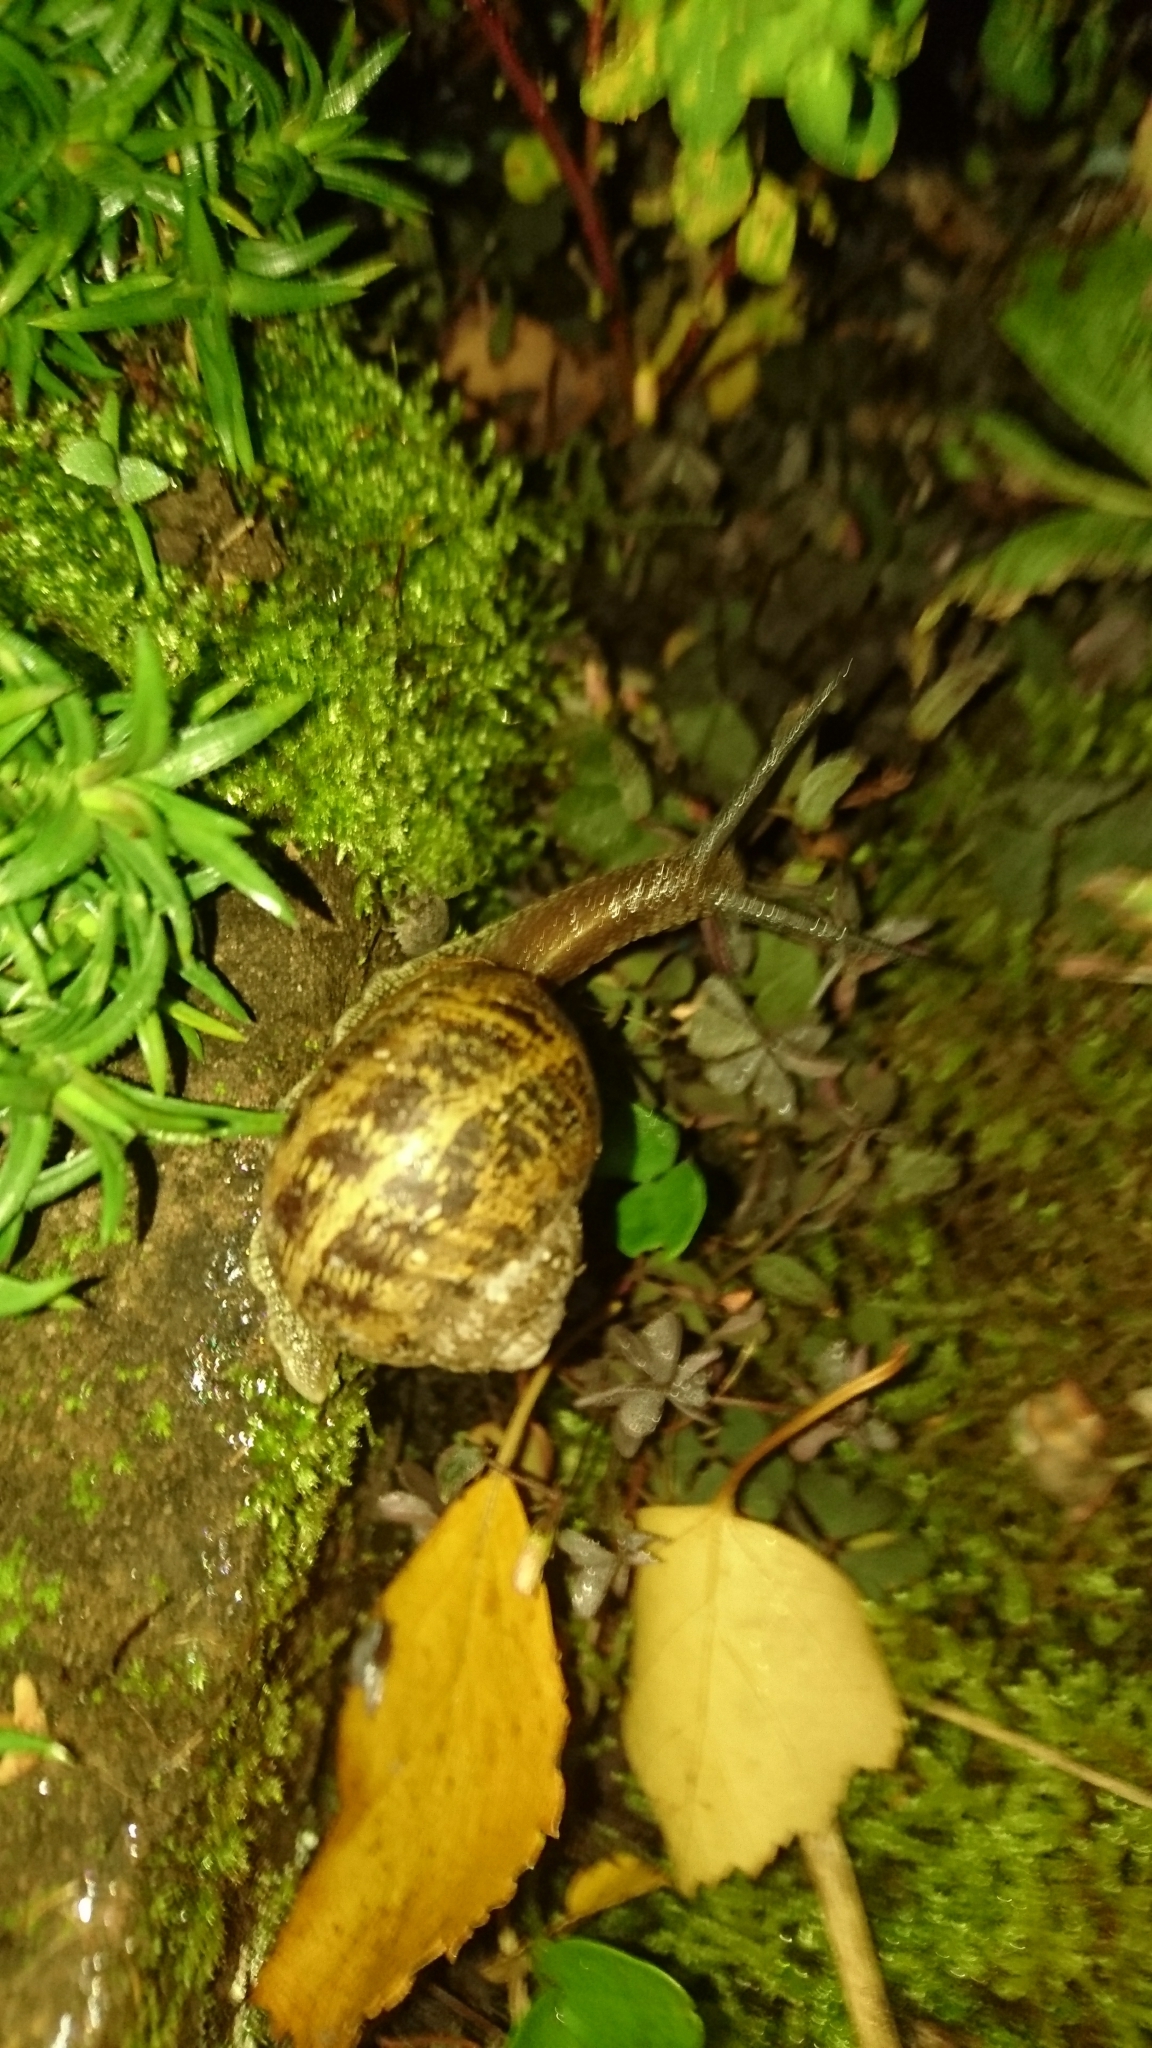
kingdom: Animalia
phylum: Mollusca
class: Gastropoda
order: Stylommatophora
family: Helicidae
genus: Cornu
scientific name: Cornu aspersum
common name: Brown garden snail
